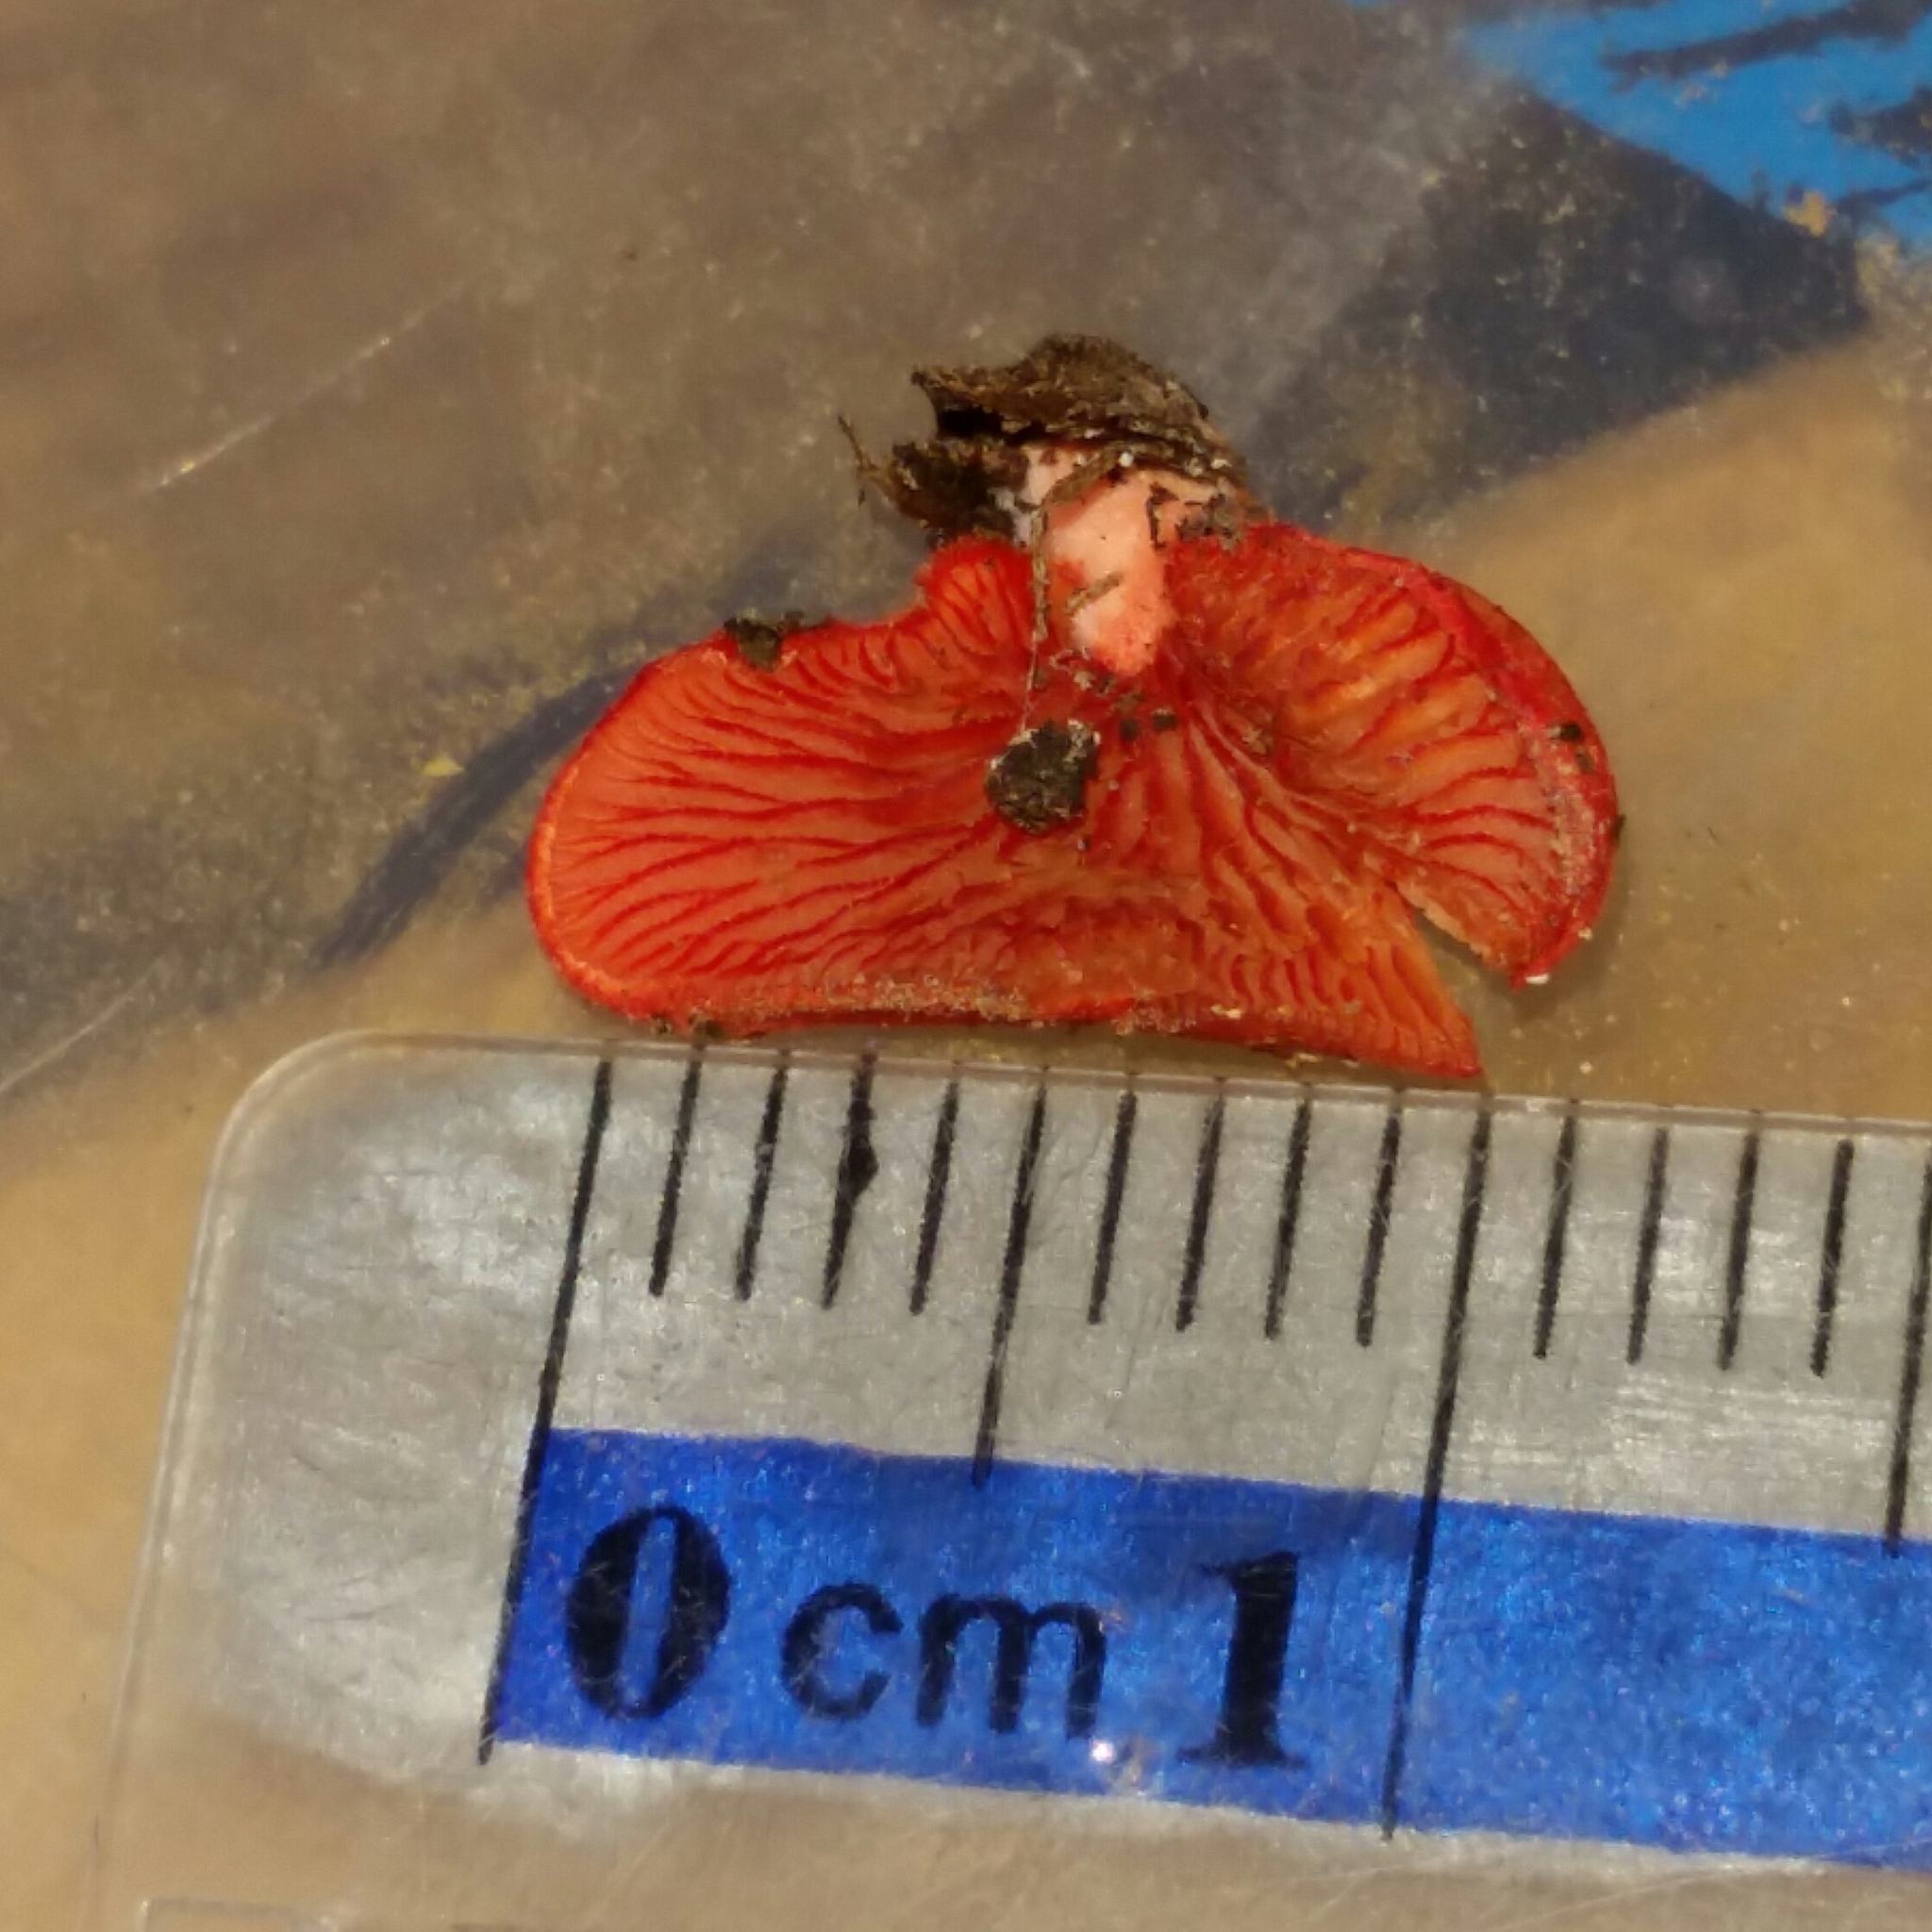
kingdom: Fungi
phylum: Basidiomycota
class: Agaricomycetes
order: Agaricales
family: Crepidotaceae
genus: Crepidotus
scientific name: Crepidotus cinnabarinus
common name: Cinnabar oysterling
